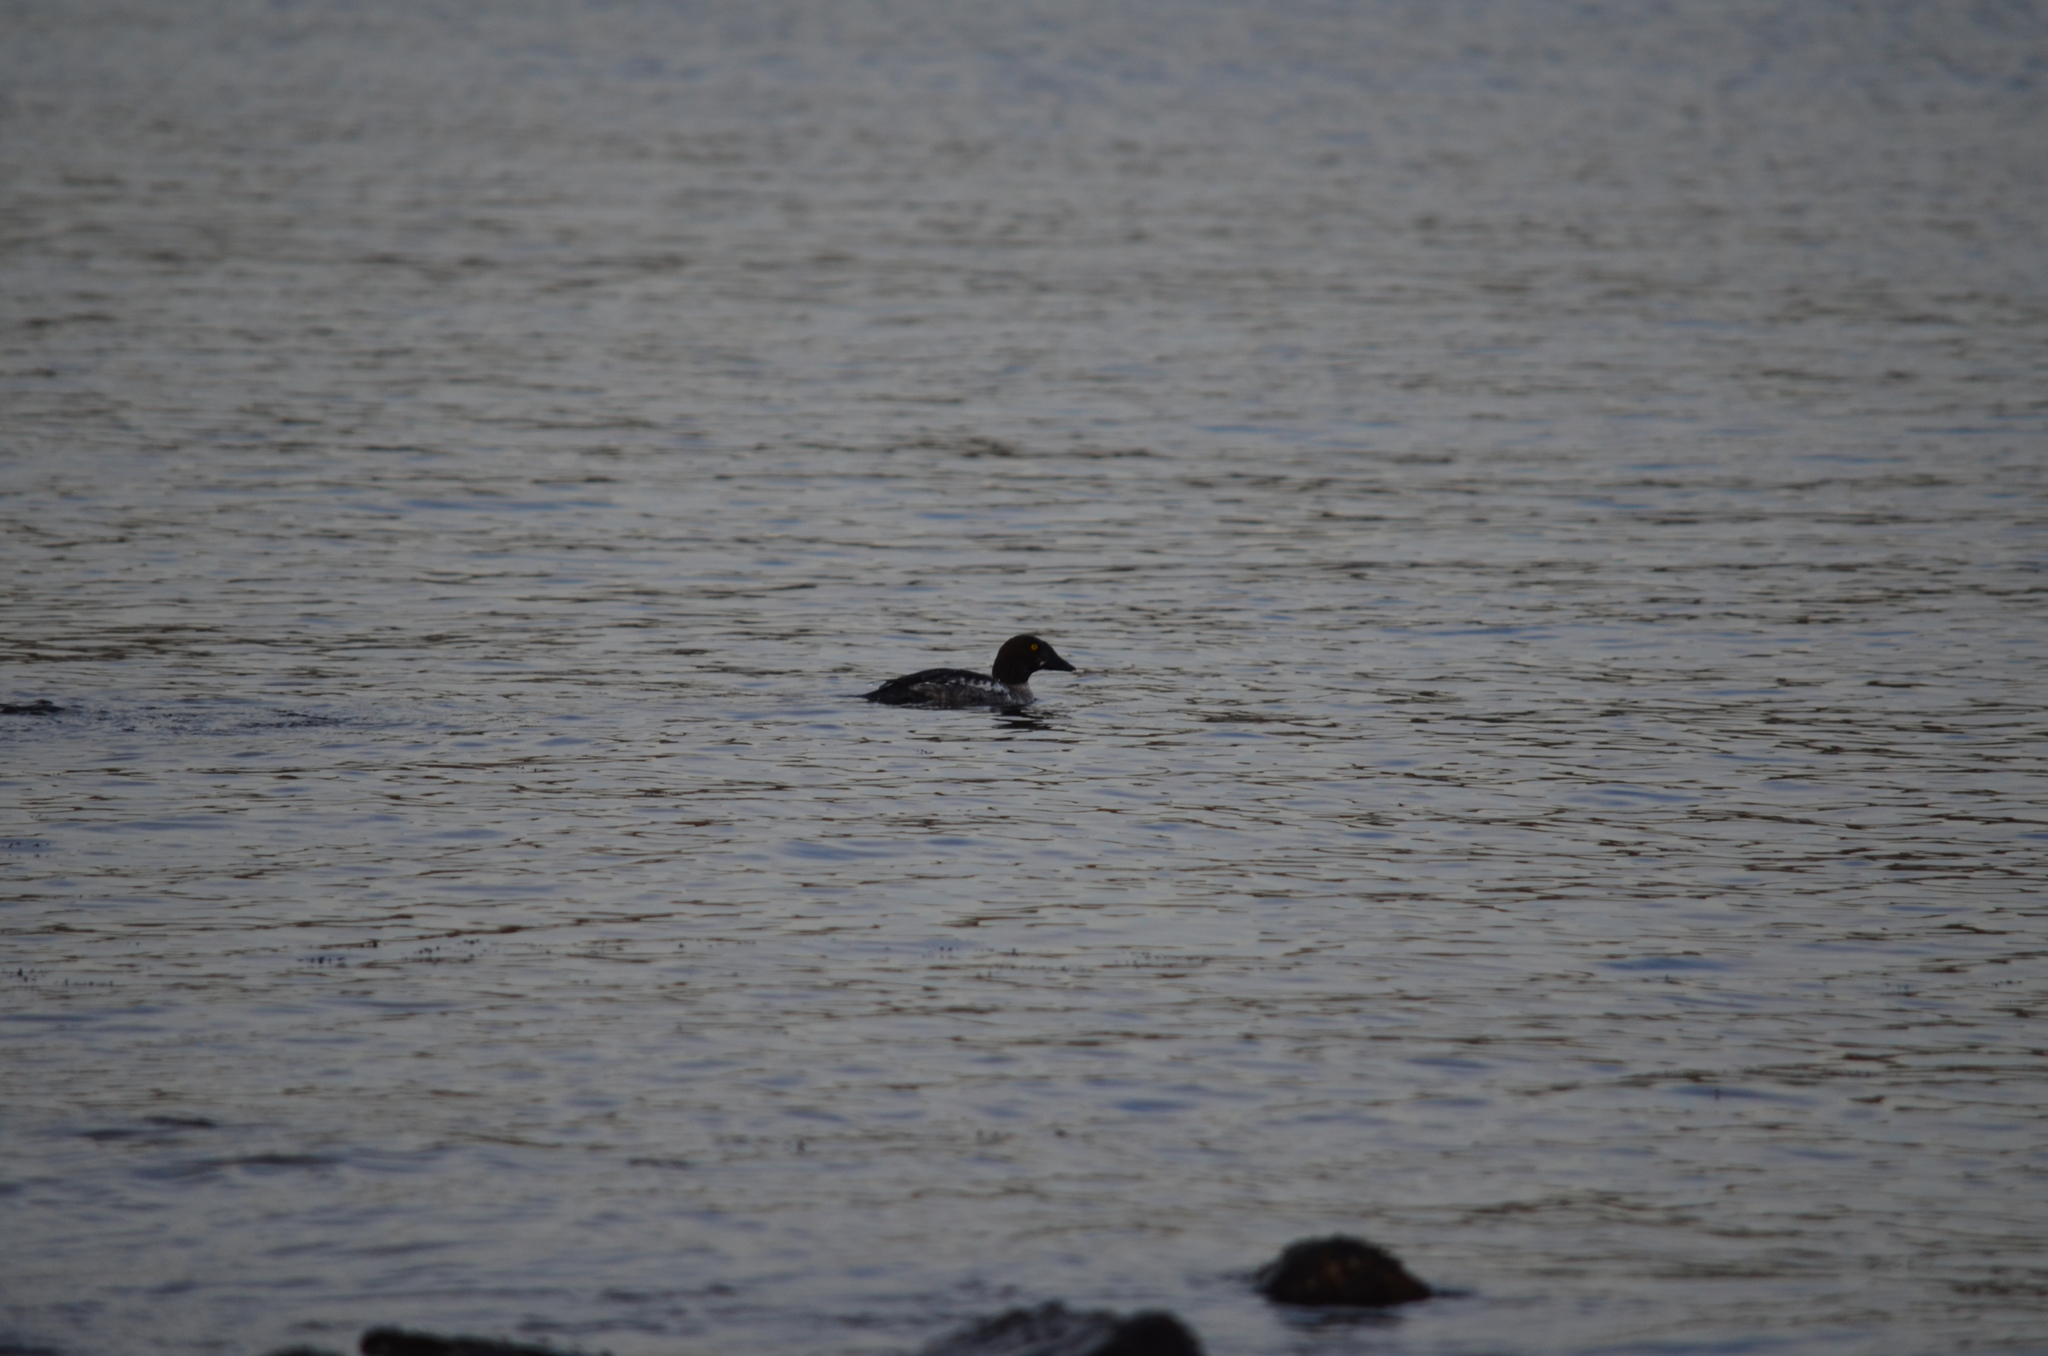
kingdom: Animalia
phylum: Chordata
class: Aves
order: Anseriformes
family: Anatidae
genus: Bucephala
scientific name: Bucephala clangula
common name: Common goldeneye
